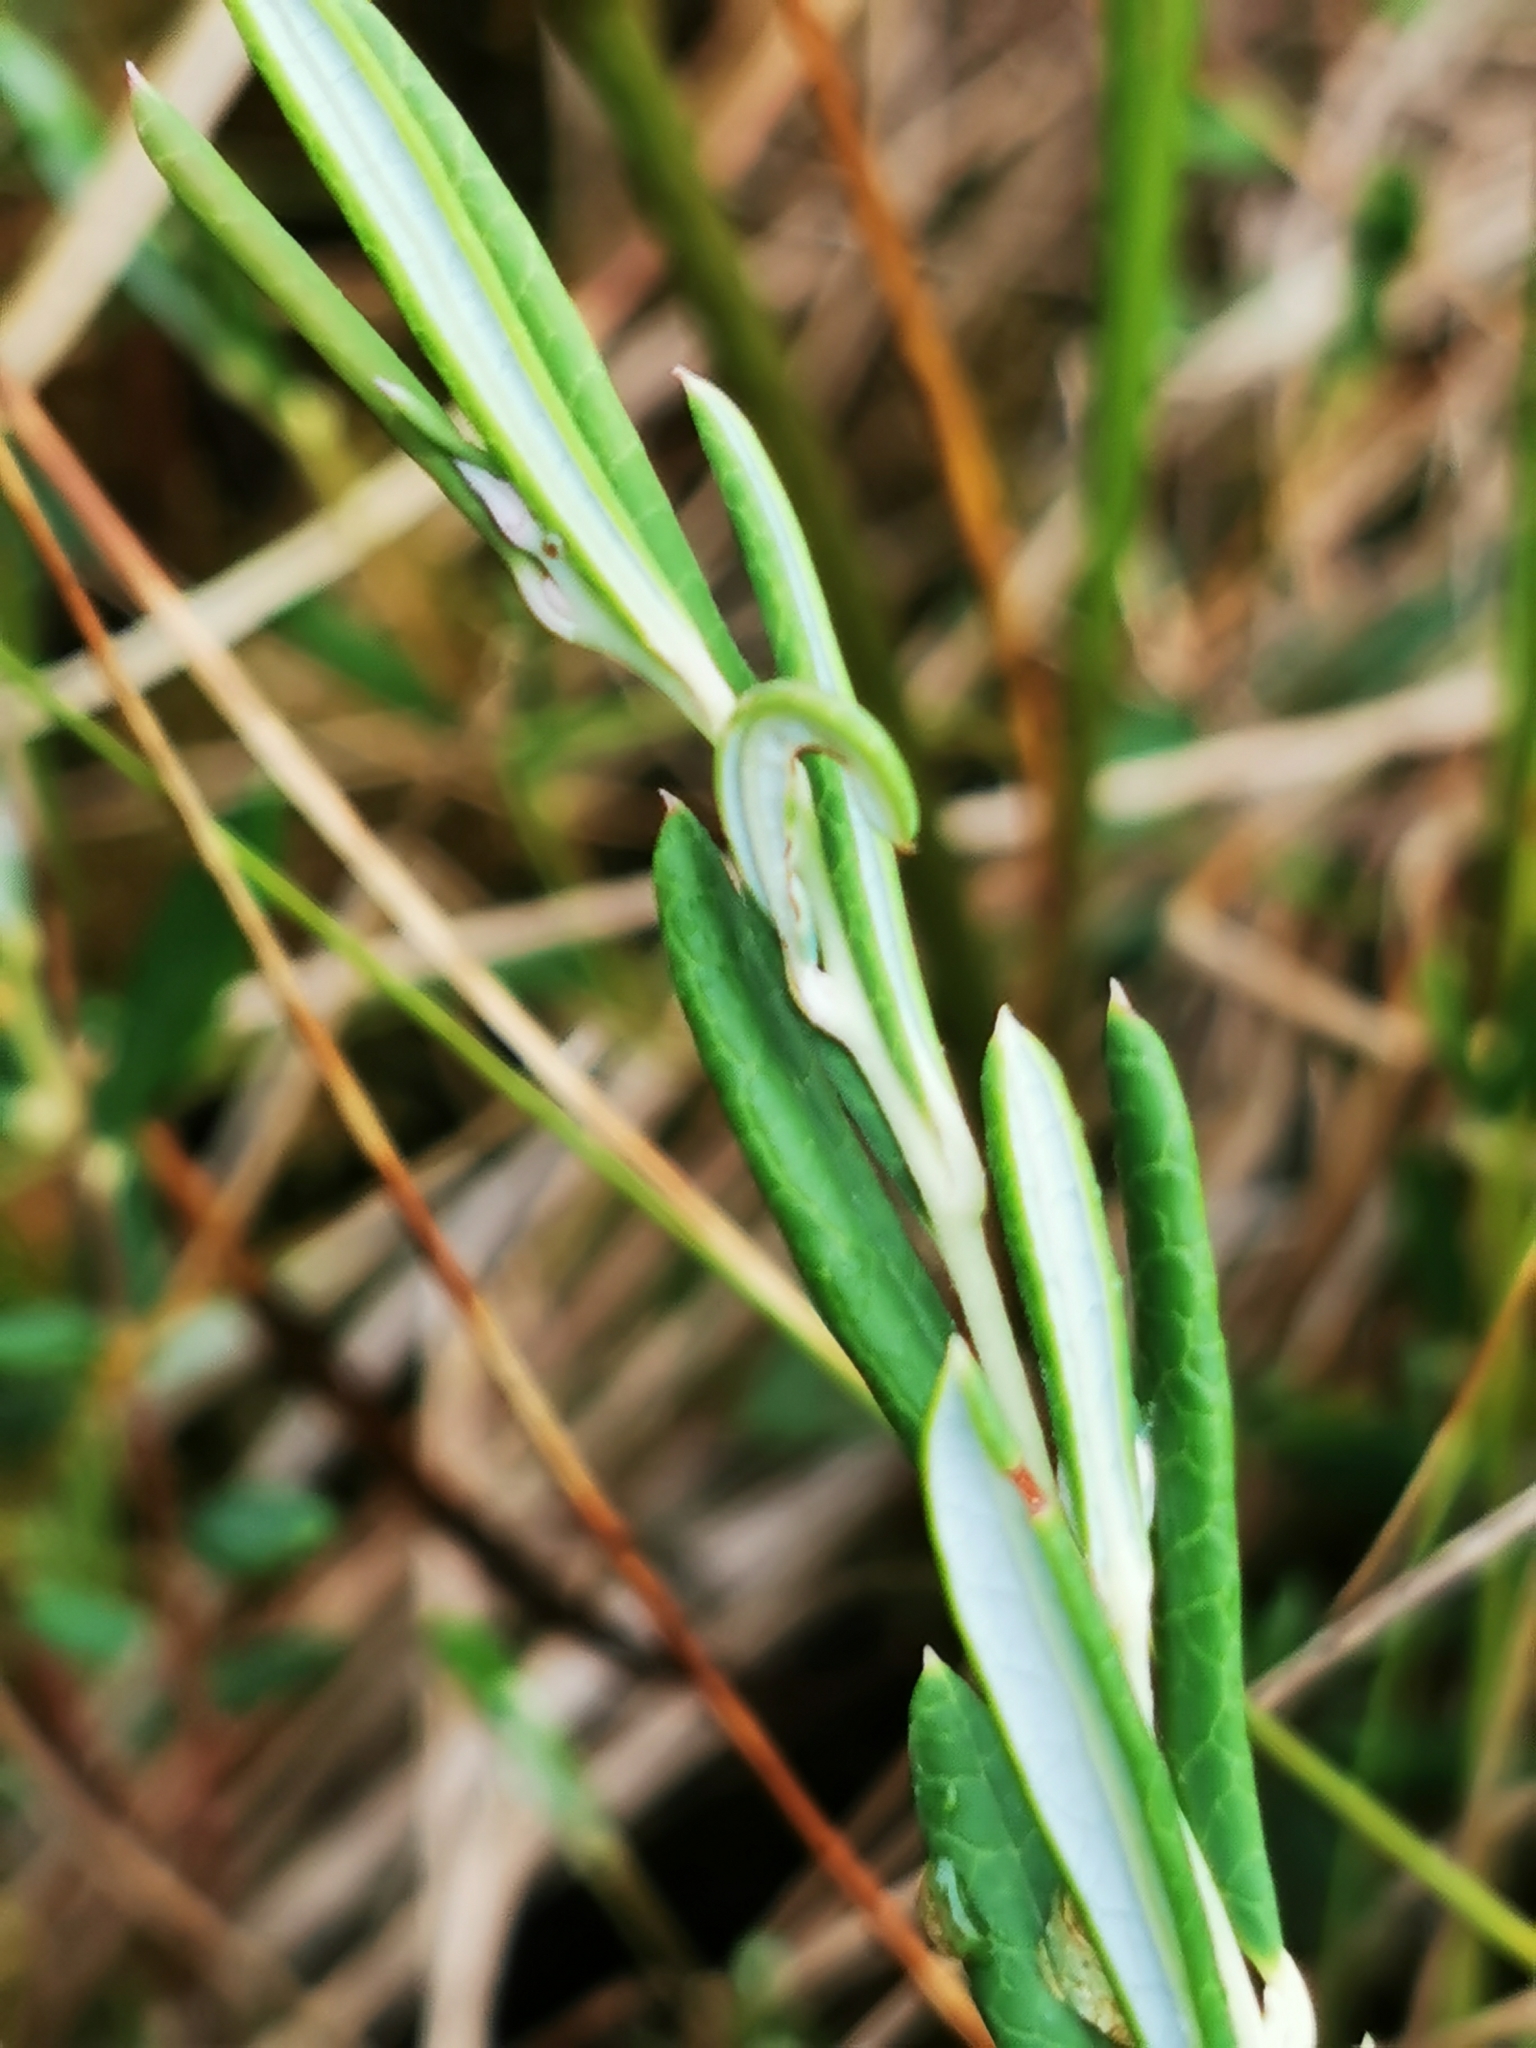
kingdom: Plantae
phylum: Tracheophyta
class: Magnoliopsida
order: Ericales
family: Ericaceae
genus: Andromeda
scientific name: Andromeda polifolia
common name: Bog-rosemary
